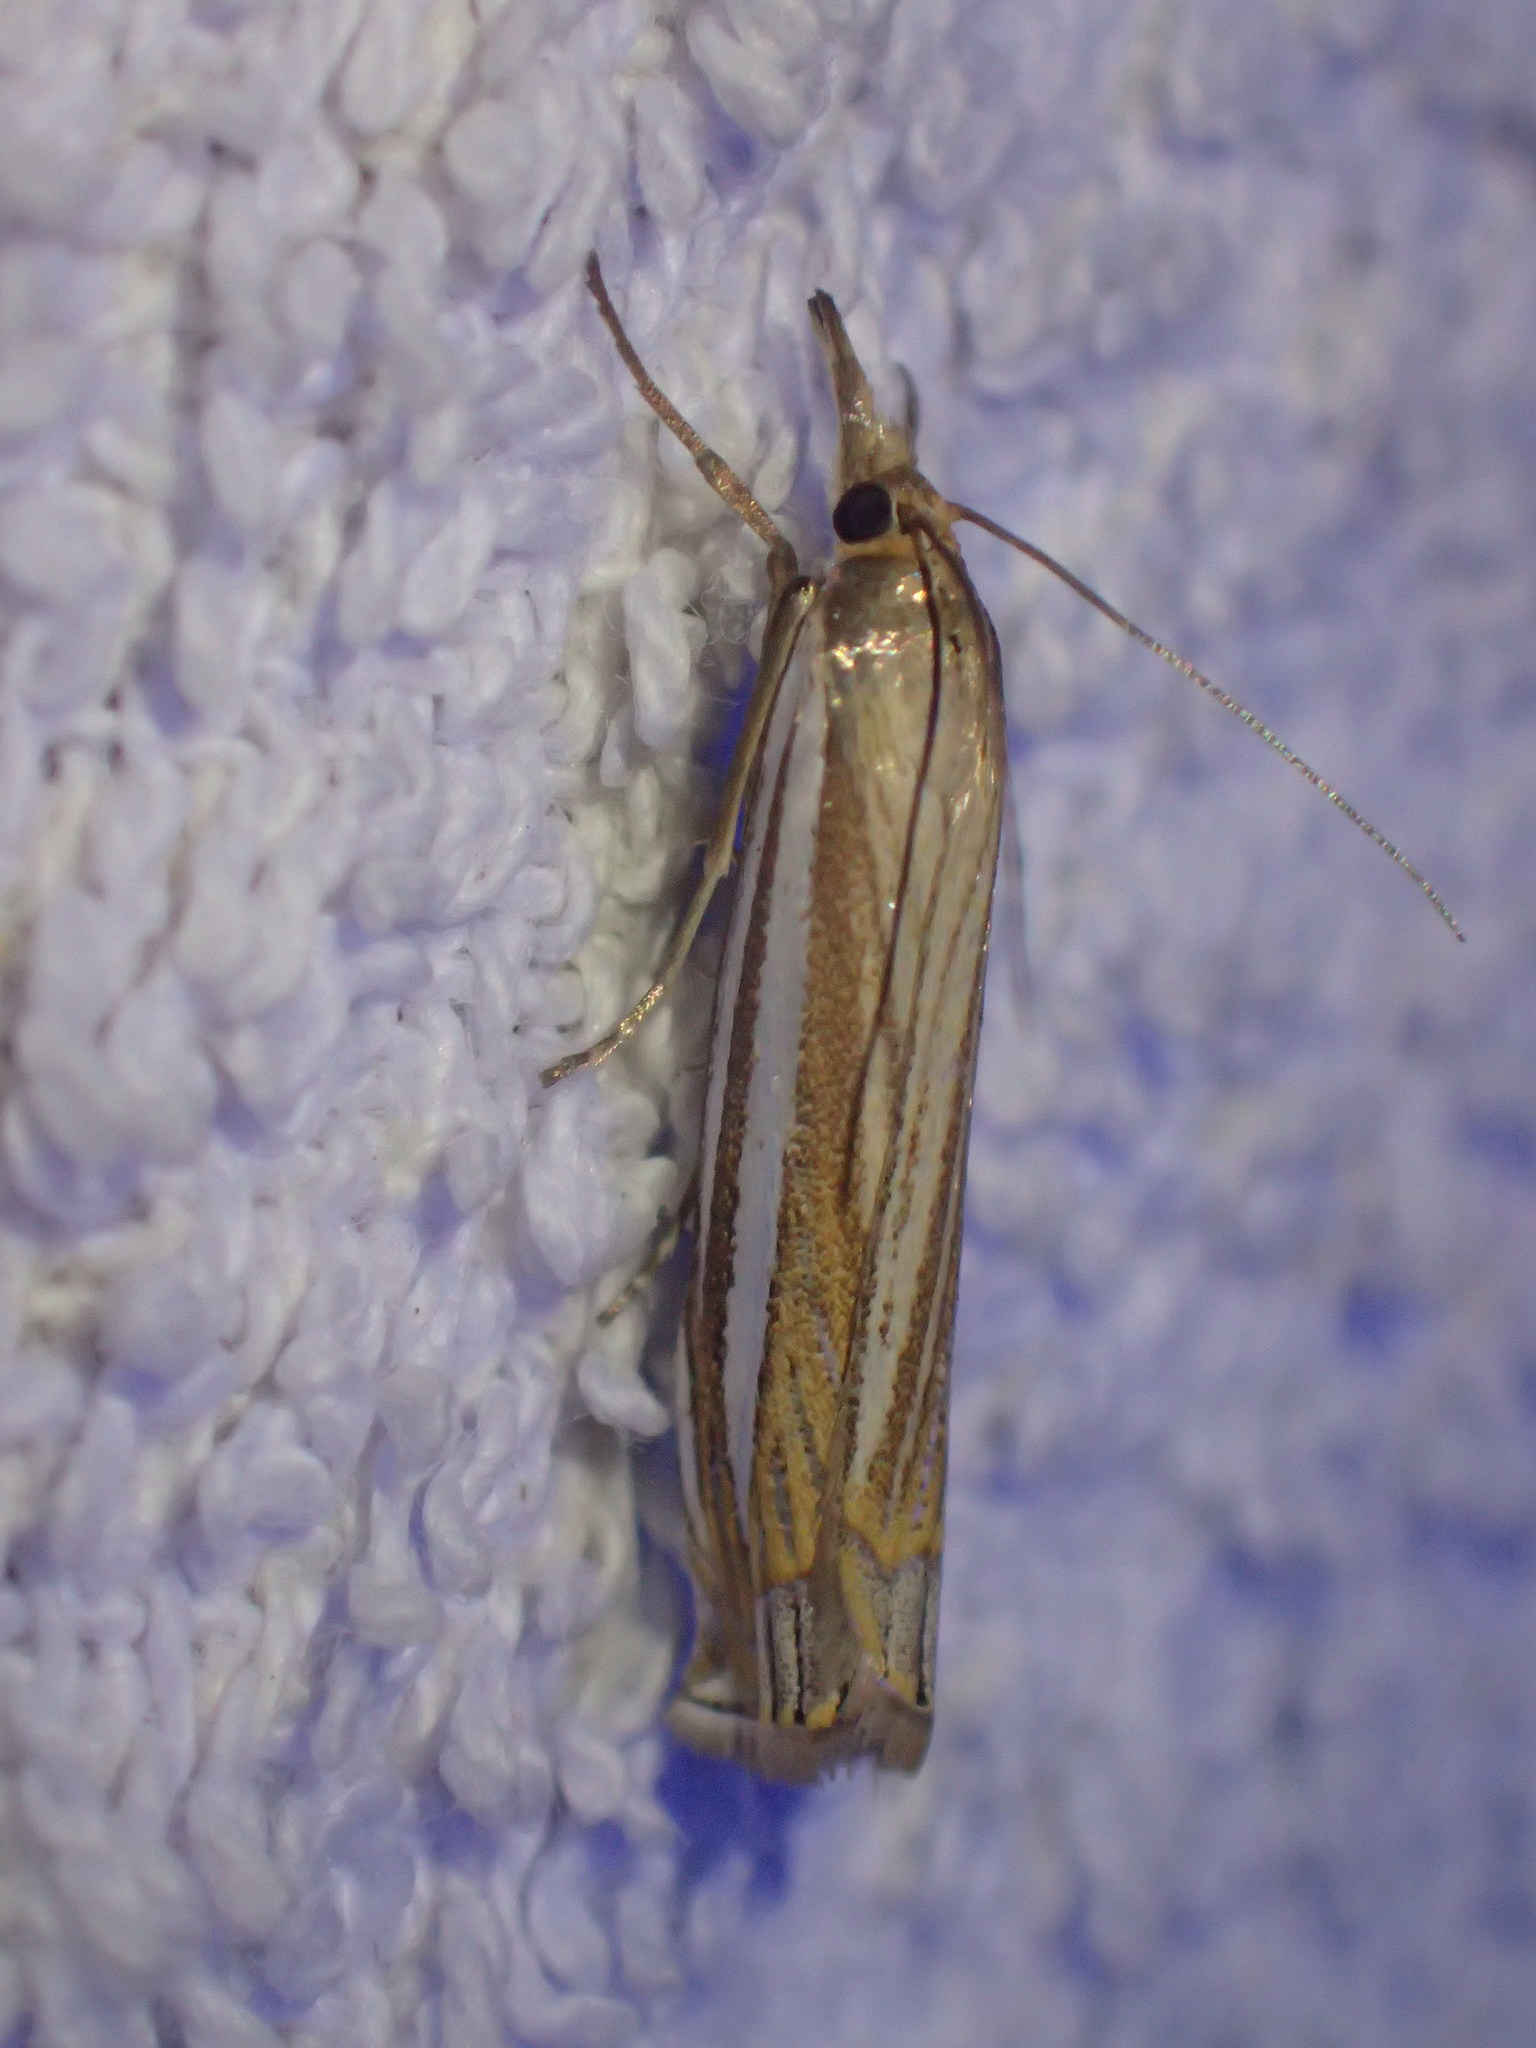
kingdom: Animalia
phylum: Arthropoda
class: Insecta
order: Lepidoptera
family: Crambidae
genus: Crambus
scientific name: Crambus laqueatellus
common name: Eastern grass-veneer
